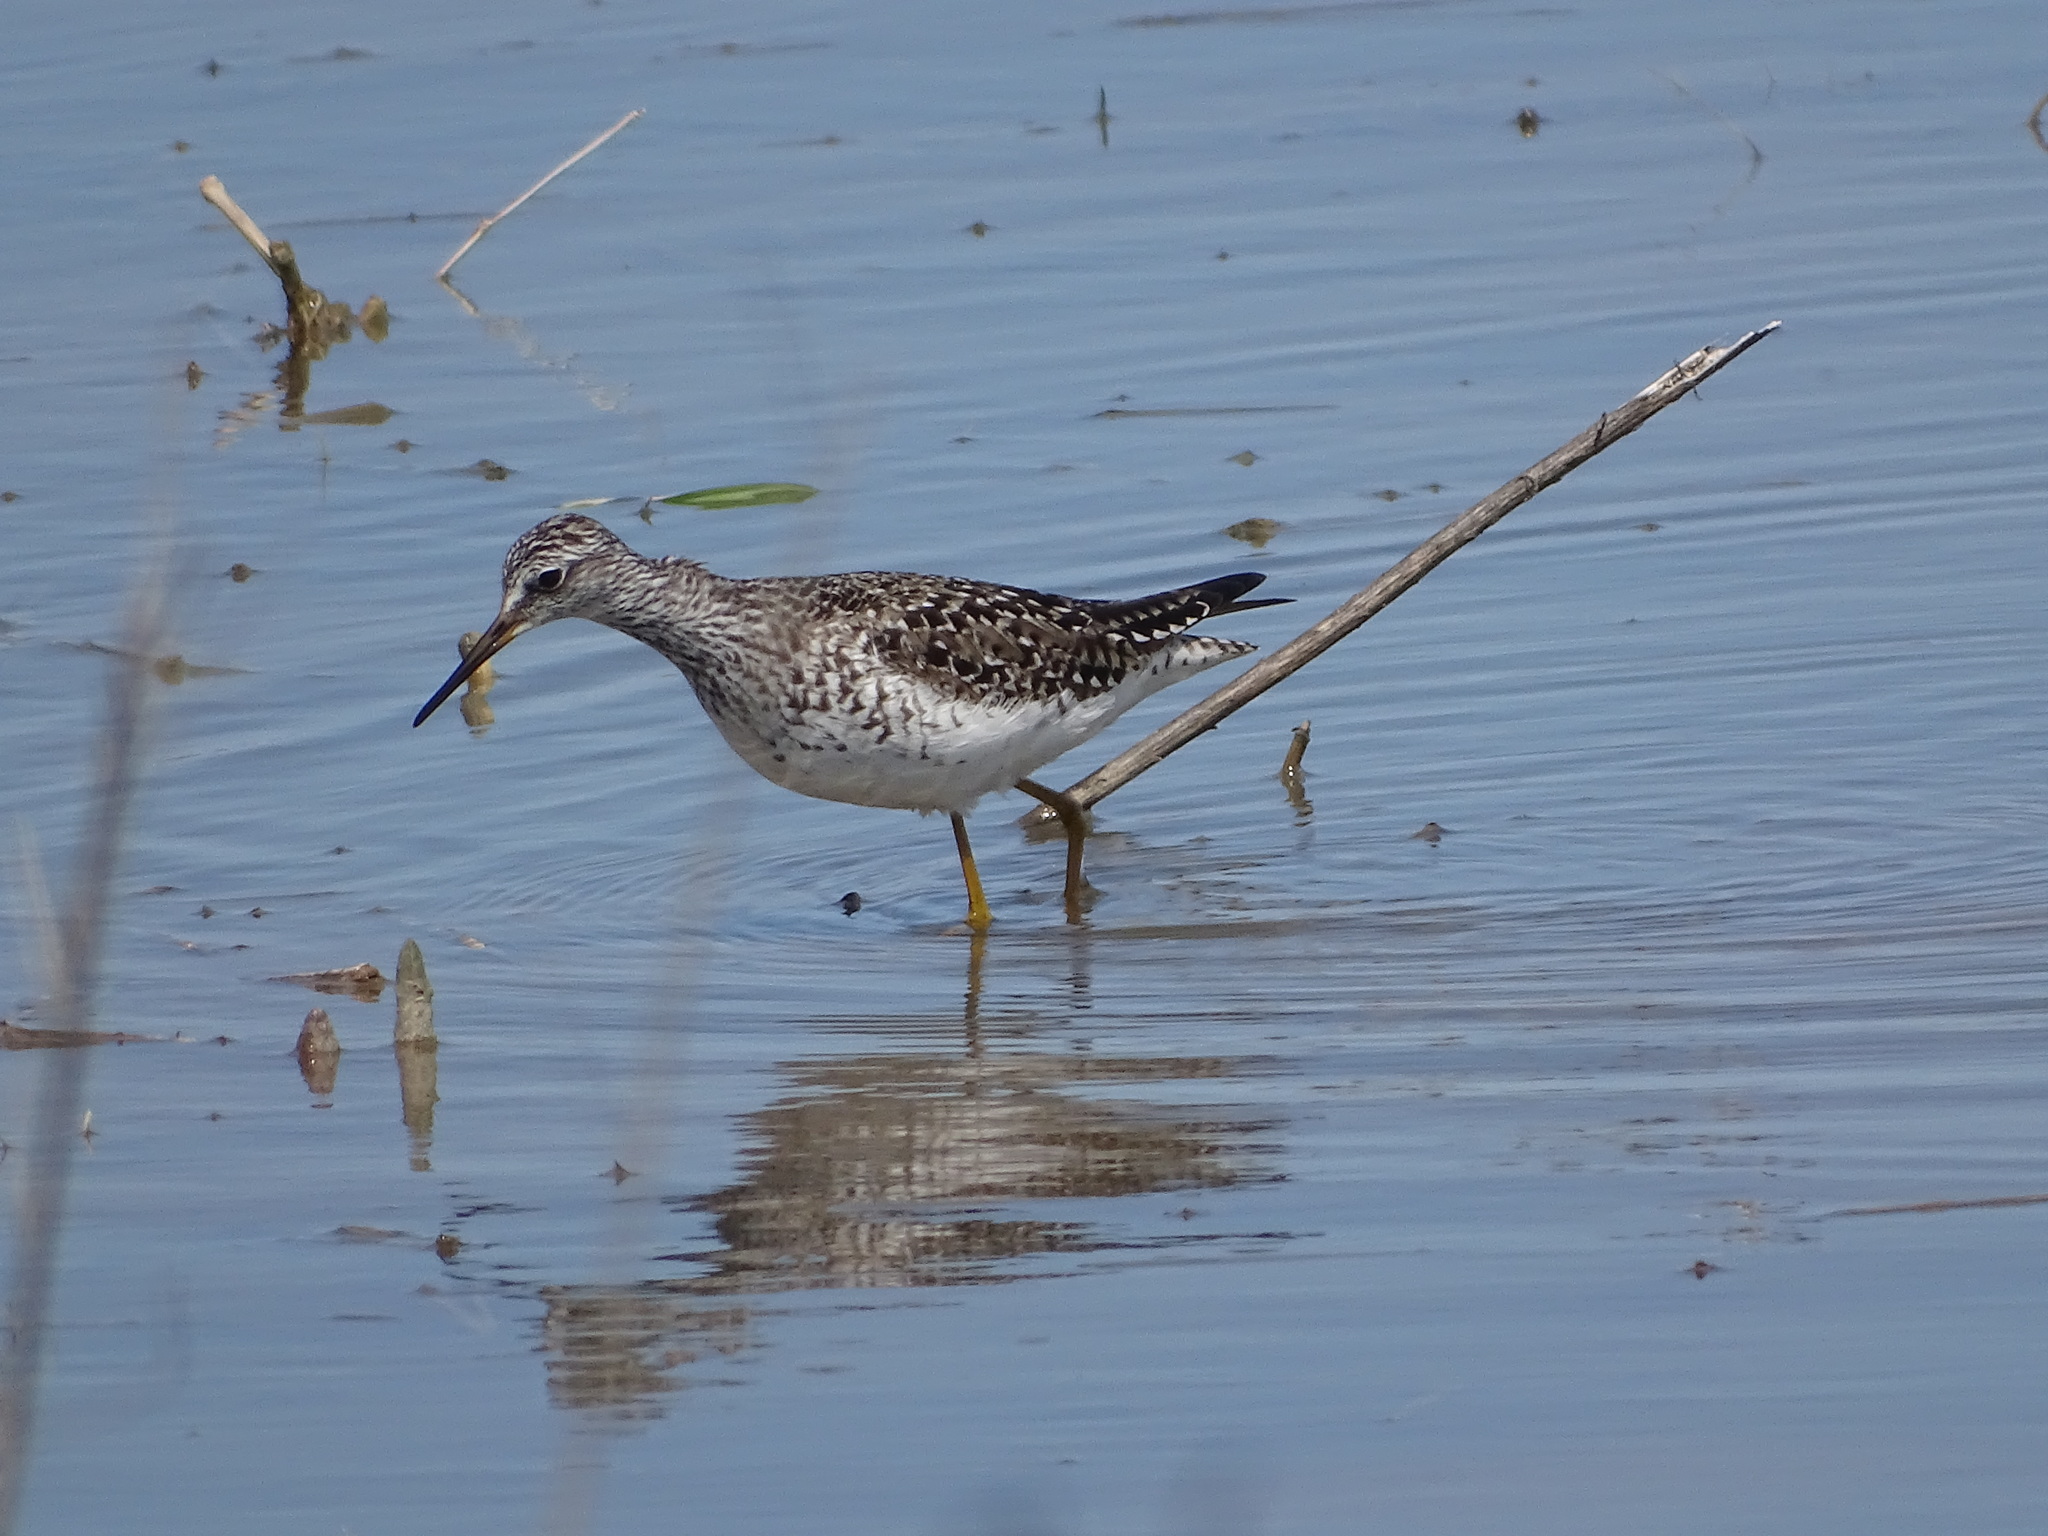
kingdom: Animalia
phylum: Chordata
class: Aves
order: Charadriiformes
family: Scolopacidae
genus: Tringa
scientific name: Tringa flavipes
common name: Lesser yellowlegs
